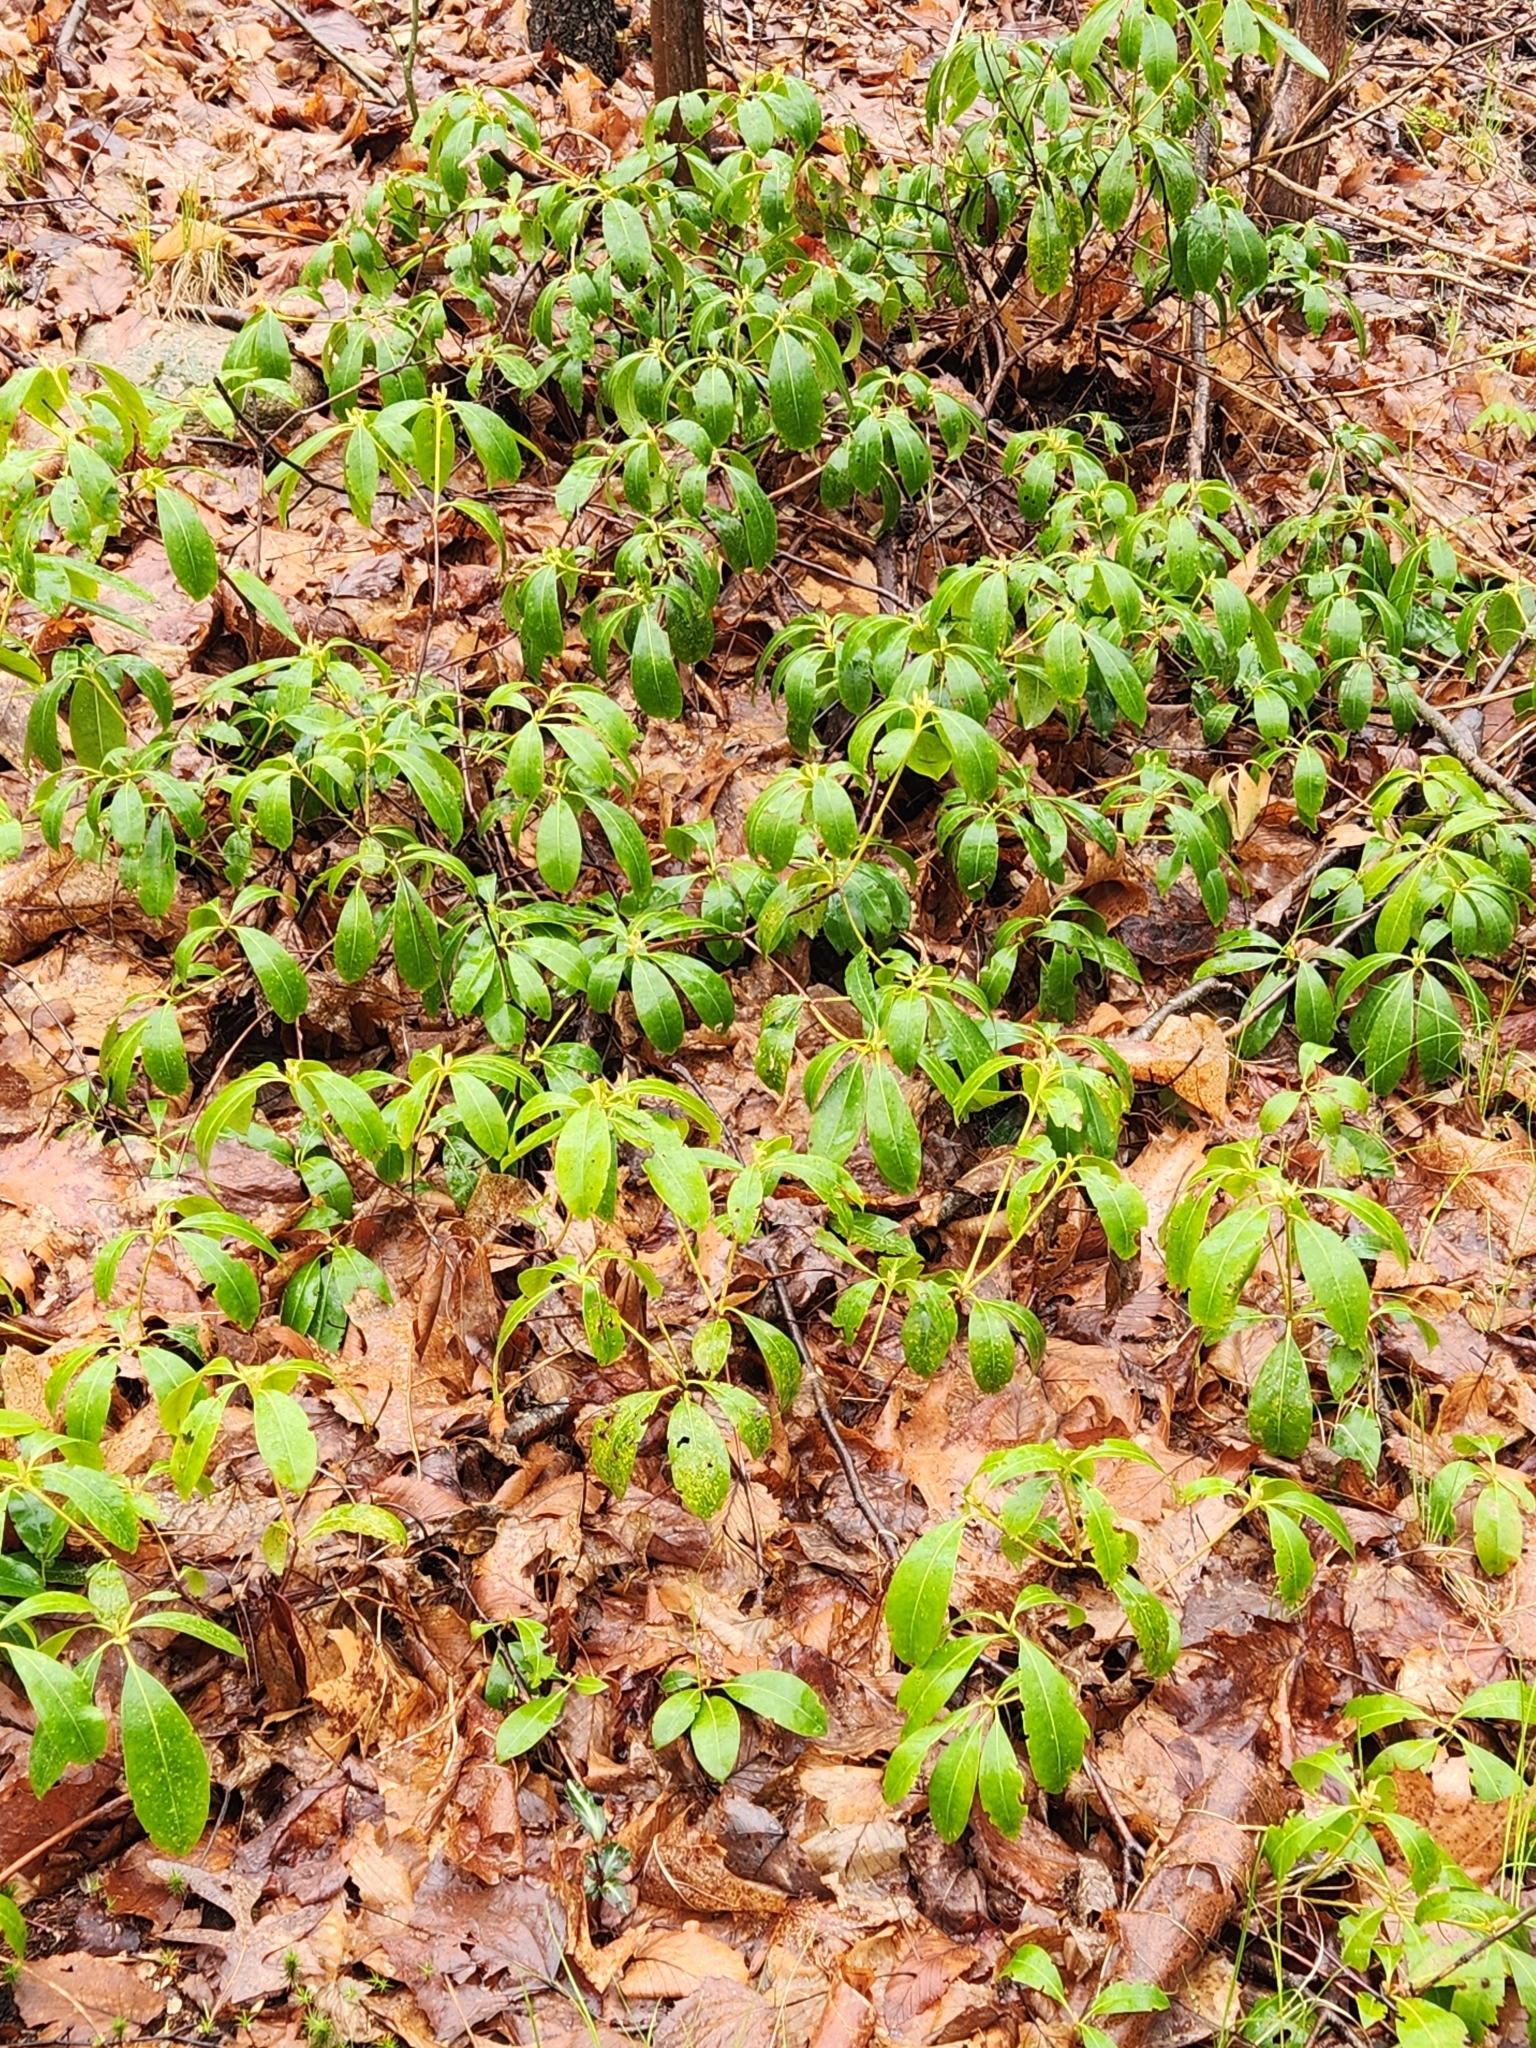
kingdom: Plantae
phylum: Tracheophyta
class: Magnoliopsida
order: Ericales
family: Ericaceae
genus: Kalmia
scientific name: Kalmia latifolia
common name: Mountain-laurel
